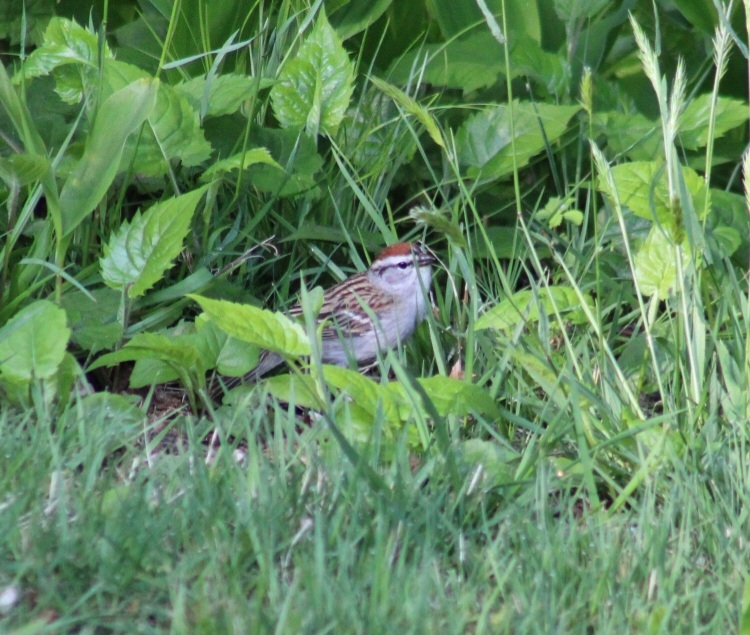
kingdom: Animalia
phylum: Chordata
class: Aves
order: Passeriformes
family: Passerellidae
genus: Spizella
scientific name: Spizella passerina
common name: Chipping sparrow
